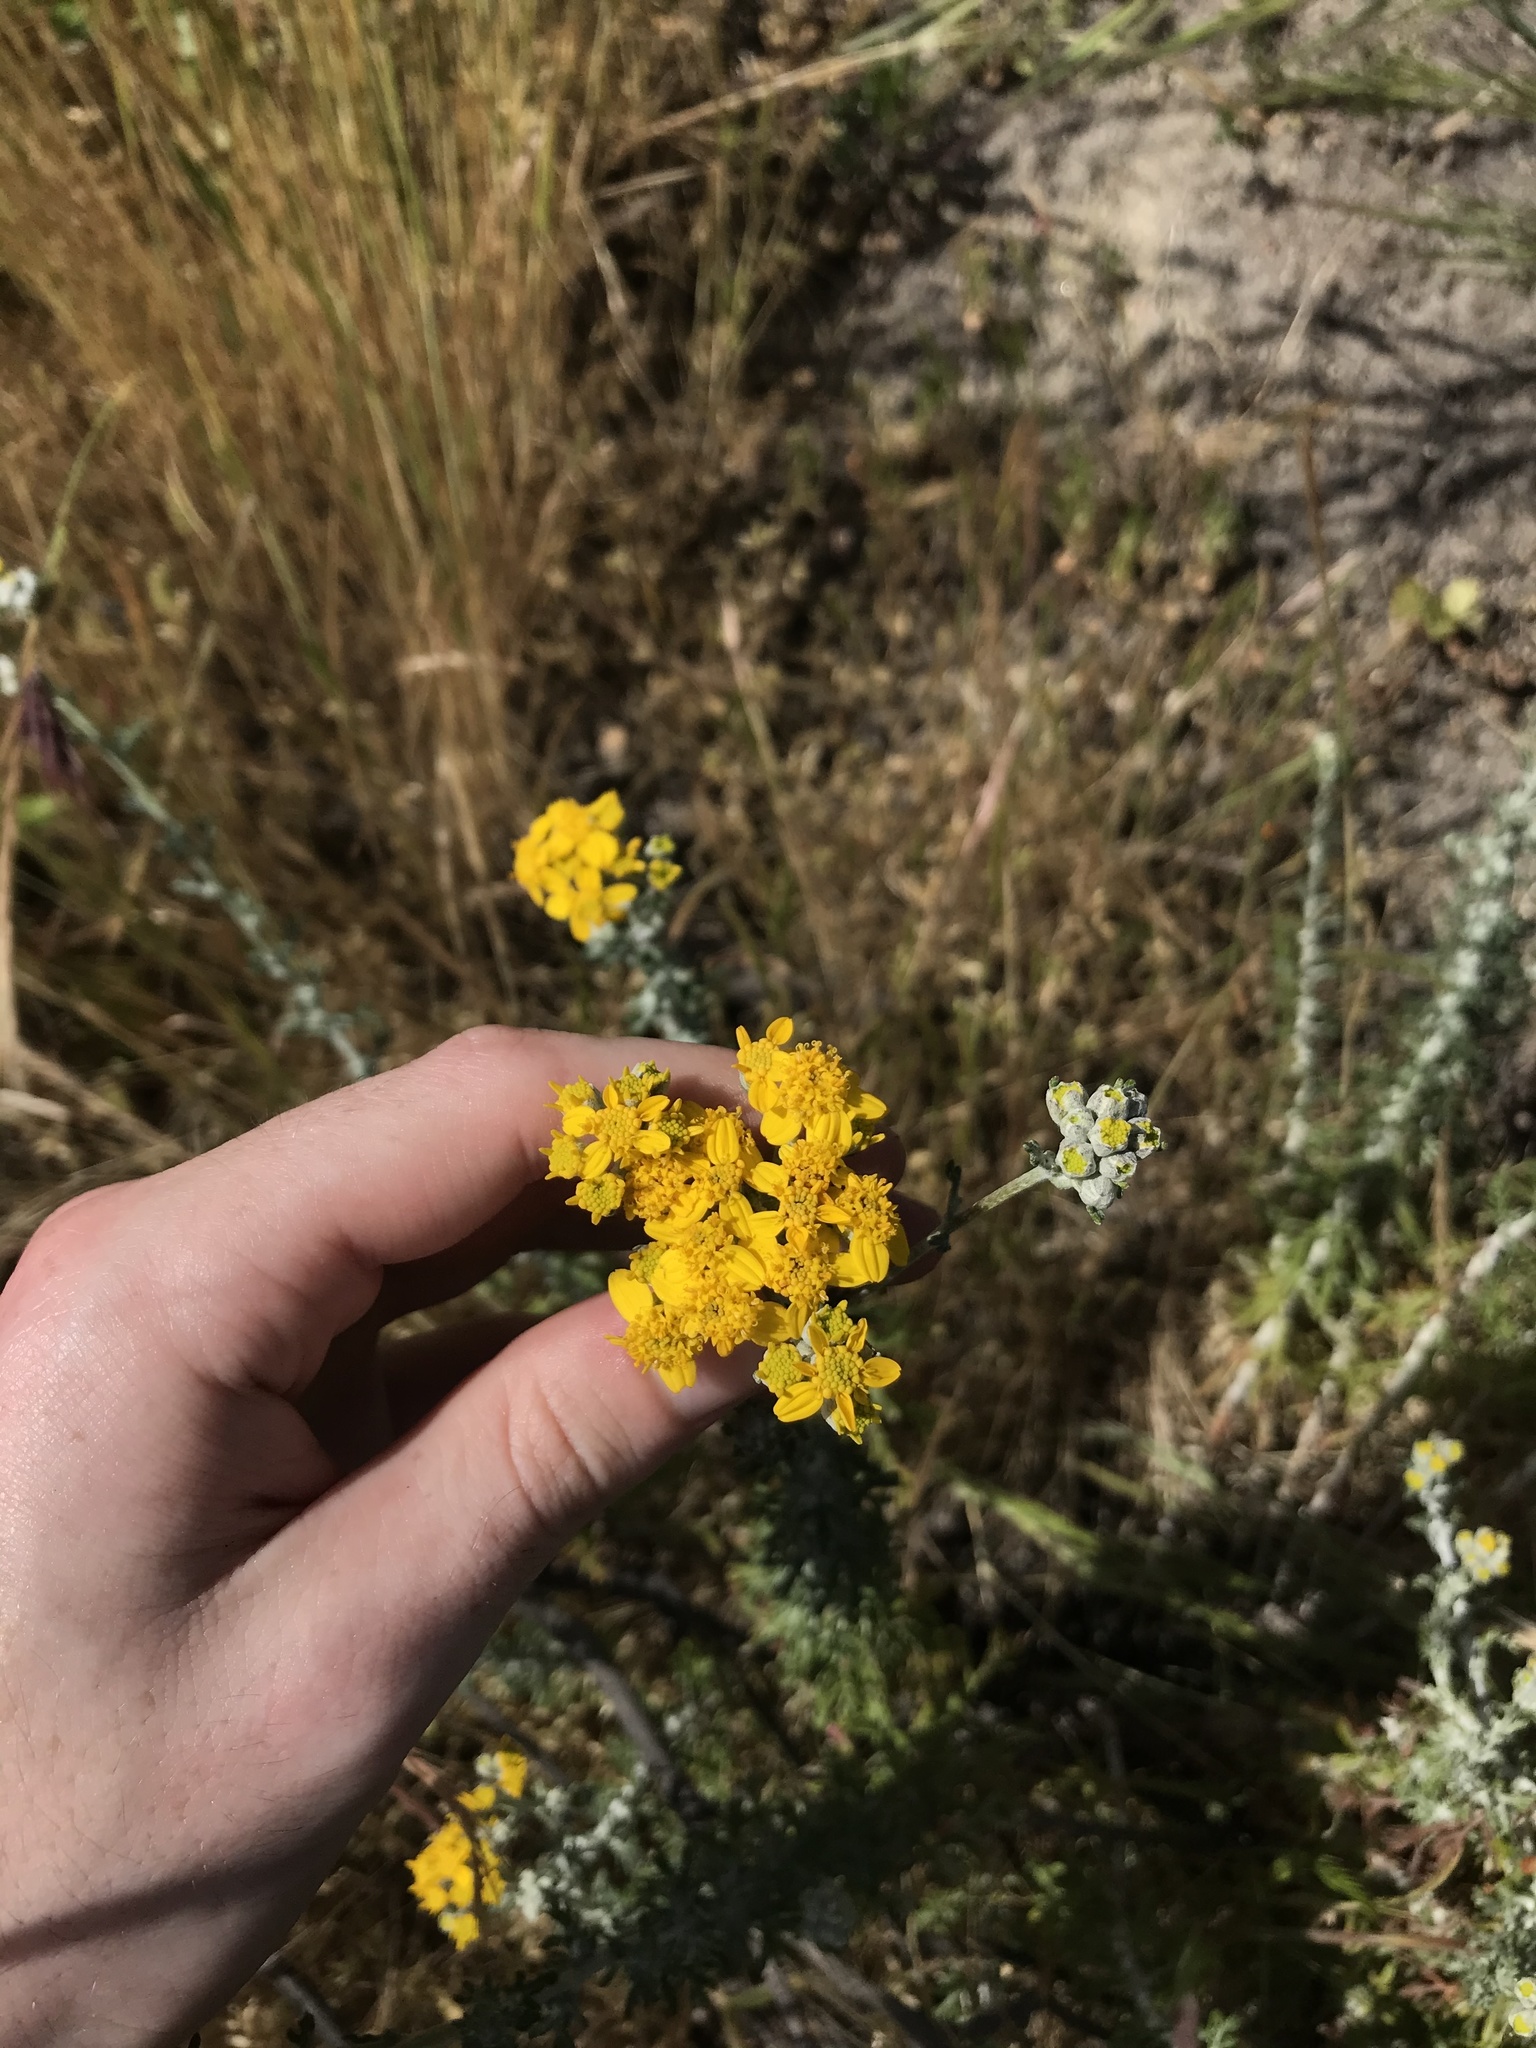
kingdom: Plantae
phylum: Tracheophyta
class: Magnoliopsida
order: Asterales
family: Asteraceae
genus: Eriophyllum
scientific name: Eriophyllum confertiflorum
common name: Golden-yarrow
